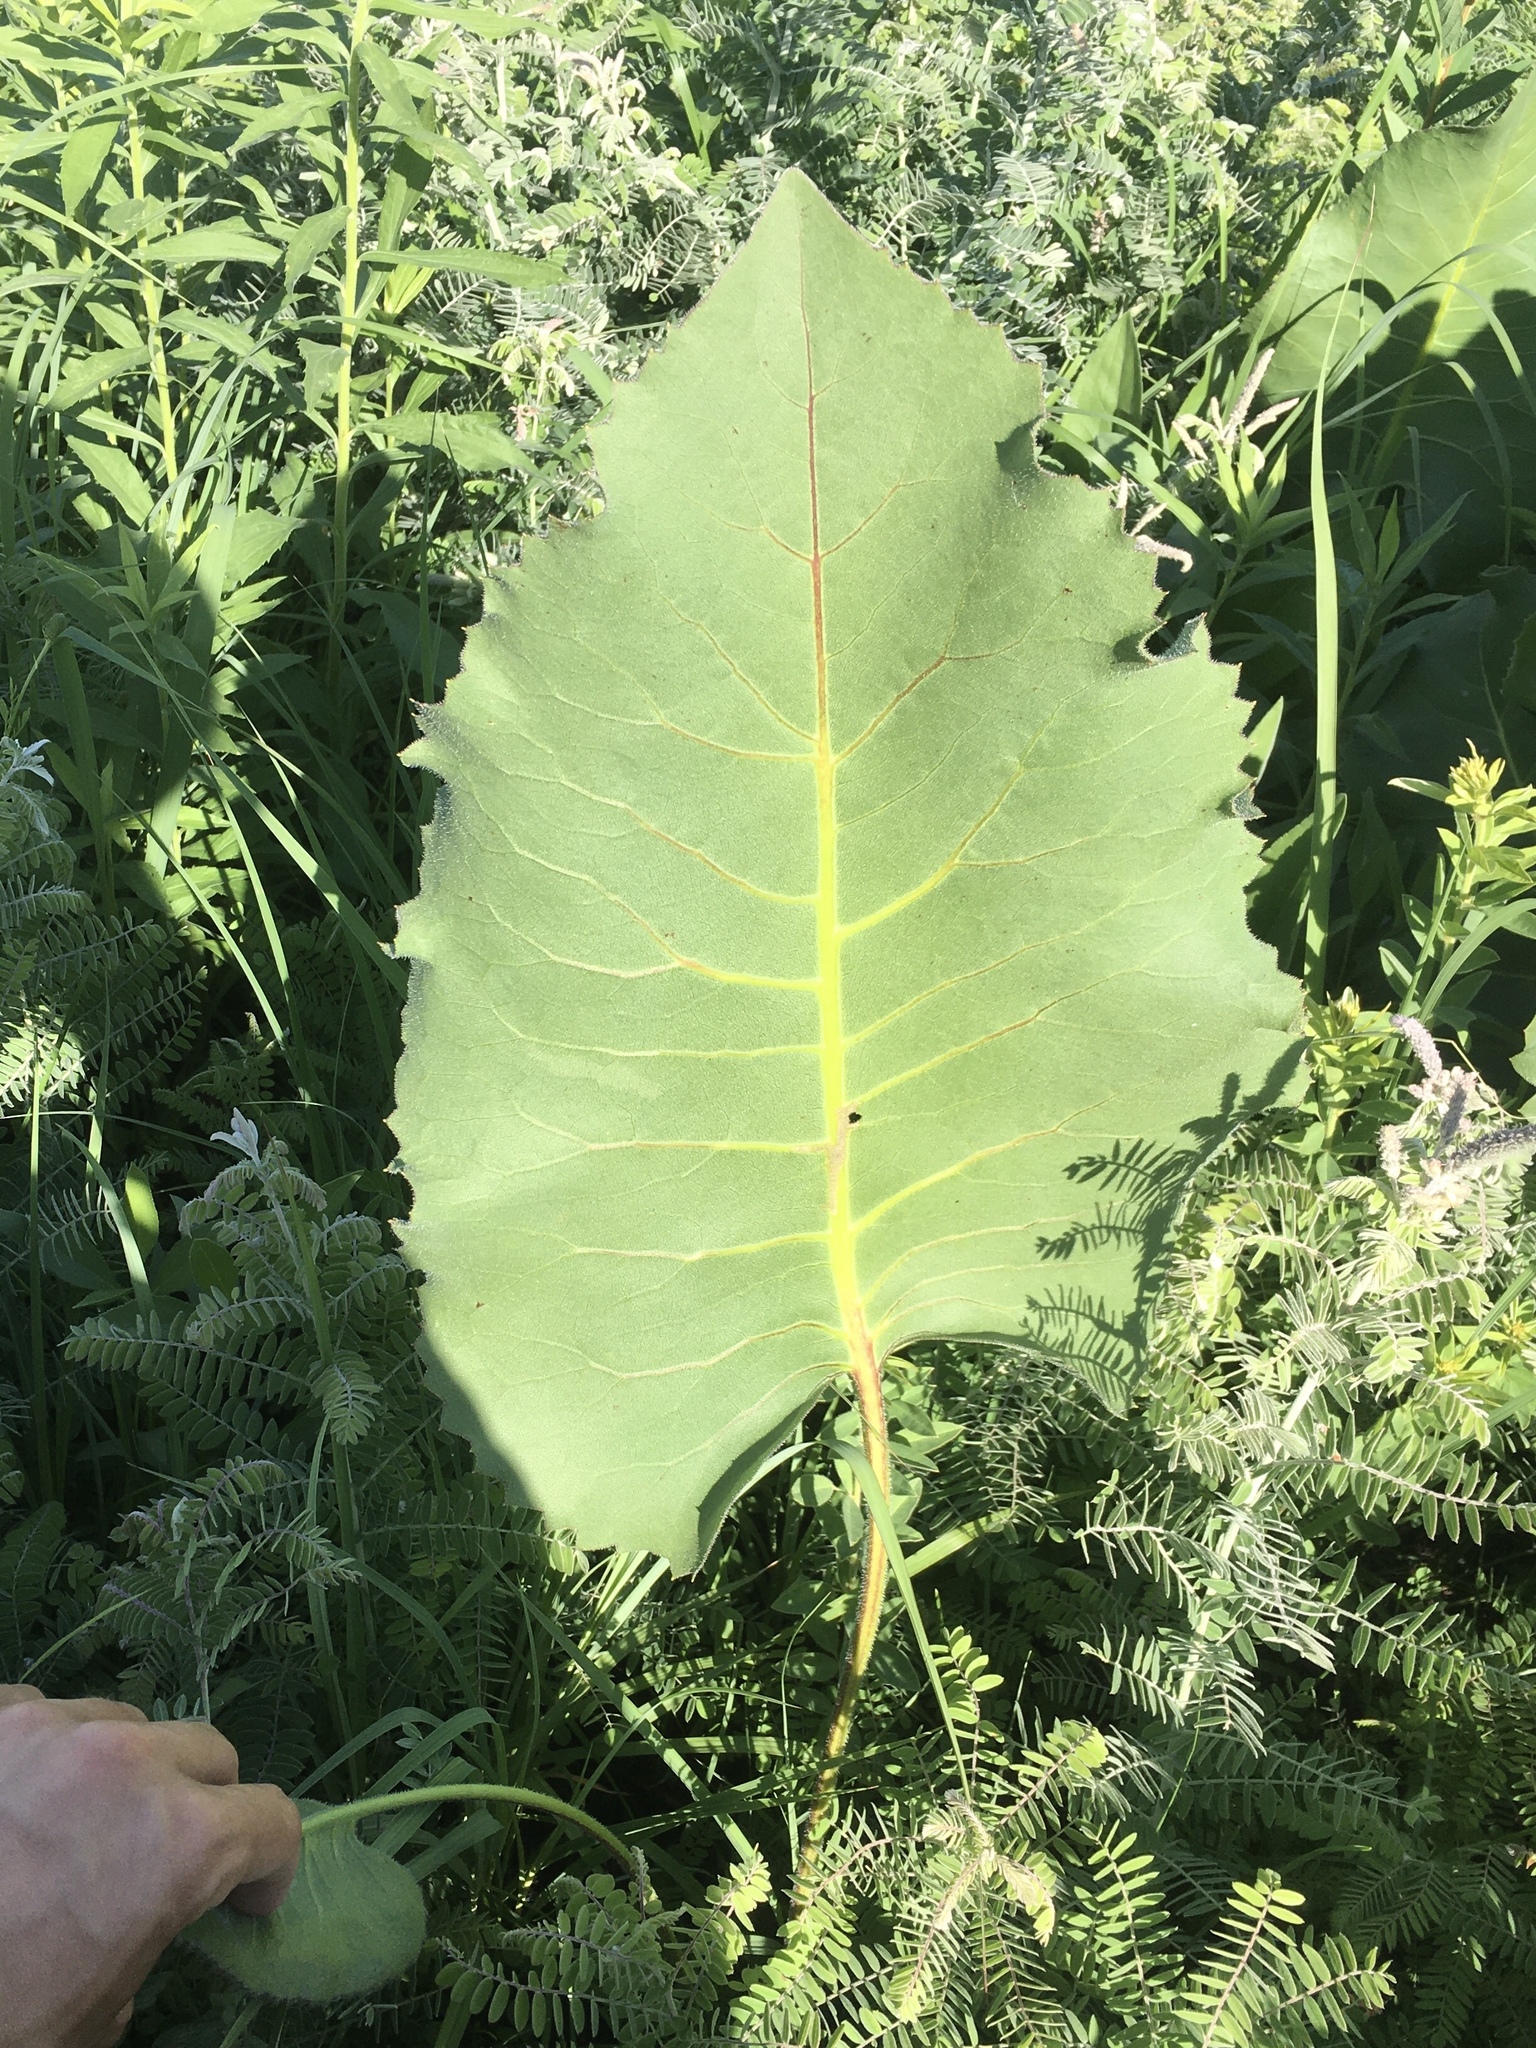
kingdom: Plantae
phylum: Tracheophyta
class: Magnoliopsida
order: Asterales
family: Asteraceae
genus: Silphium
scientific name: Silphium terebinthinaceum
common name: Basal-leaf rosinweed
